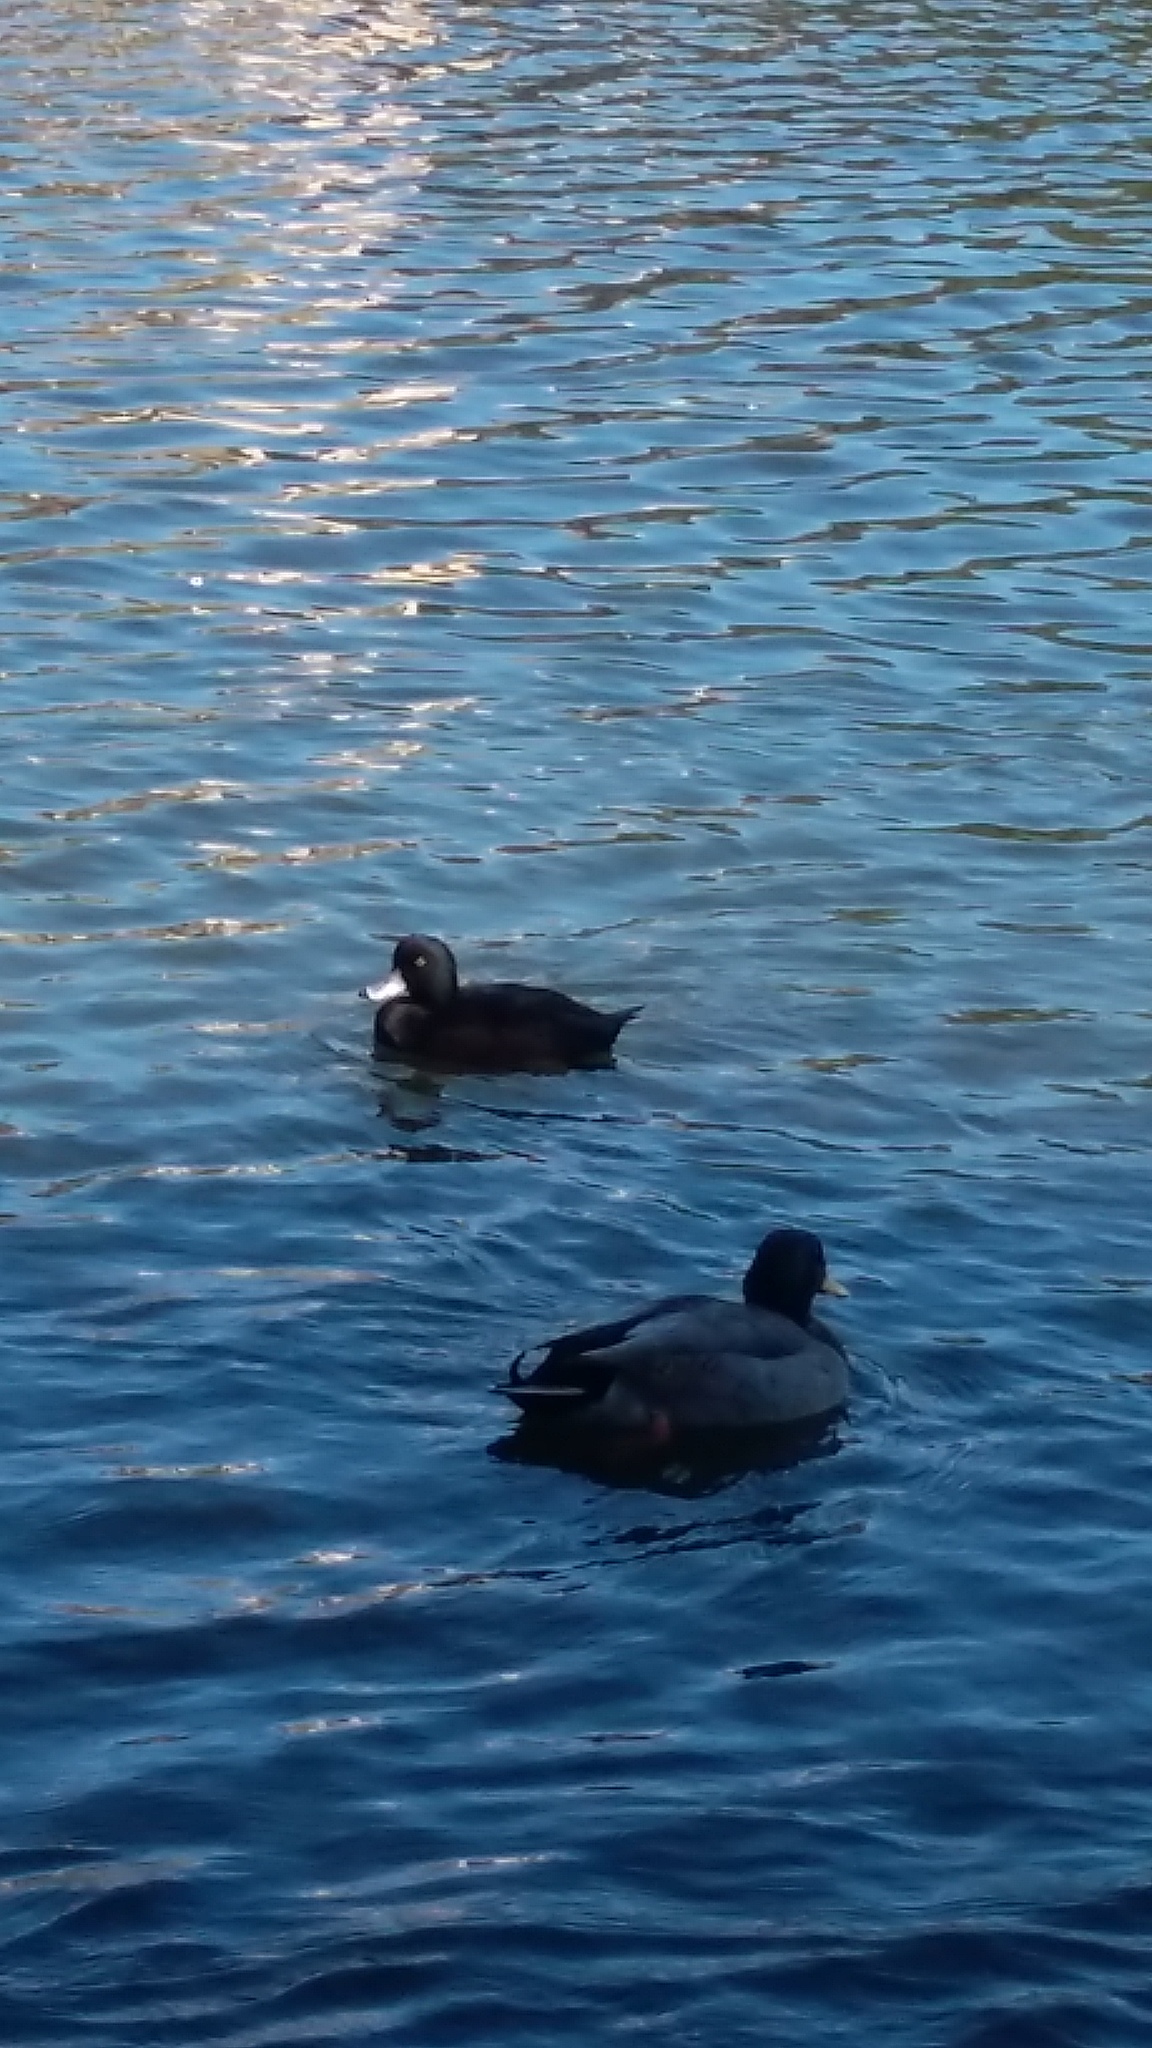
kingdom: Animalia
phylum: Chordata
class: Aves
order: Anseriformes
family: Anatidae
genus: Aythya
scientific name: Aythya novaeseelandiae
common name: New zealand scaup
